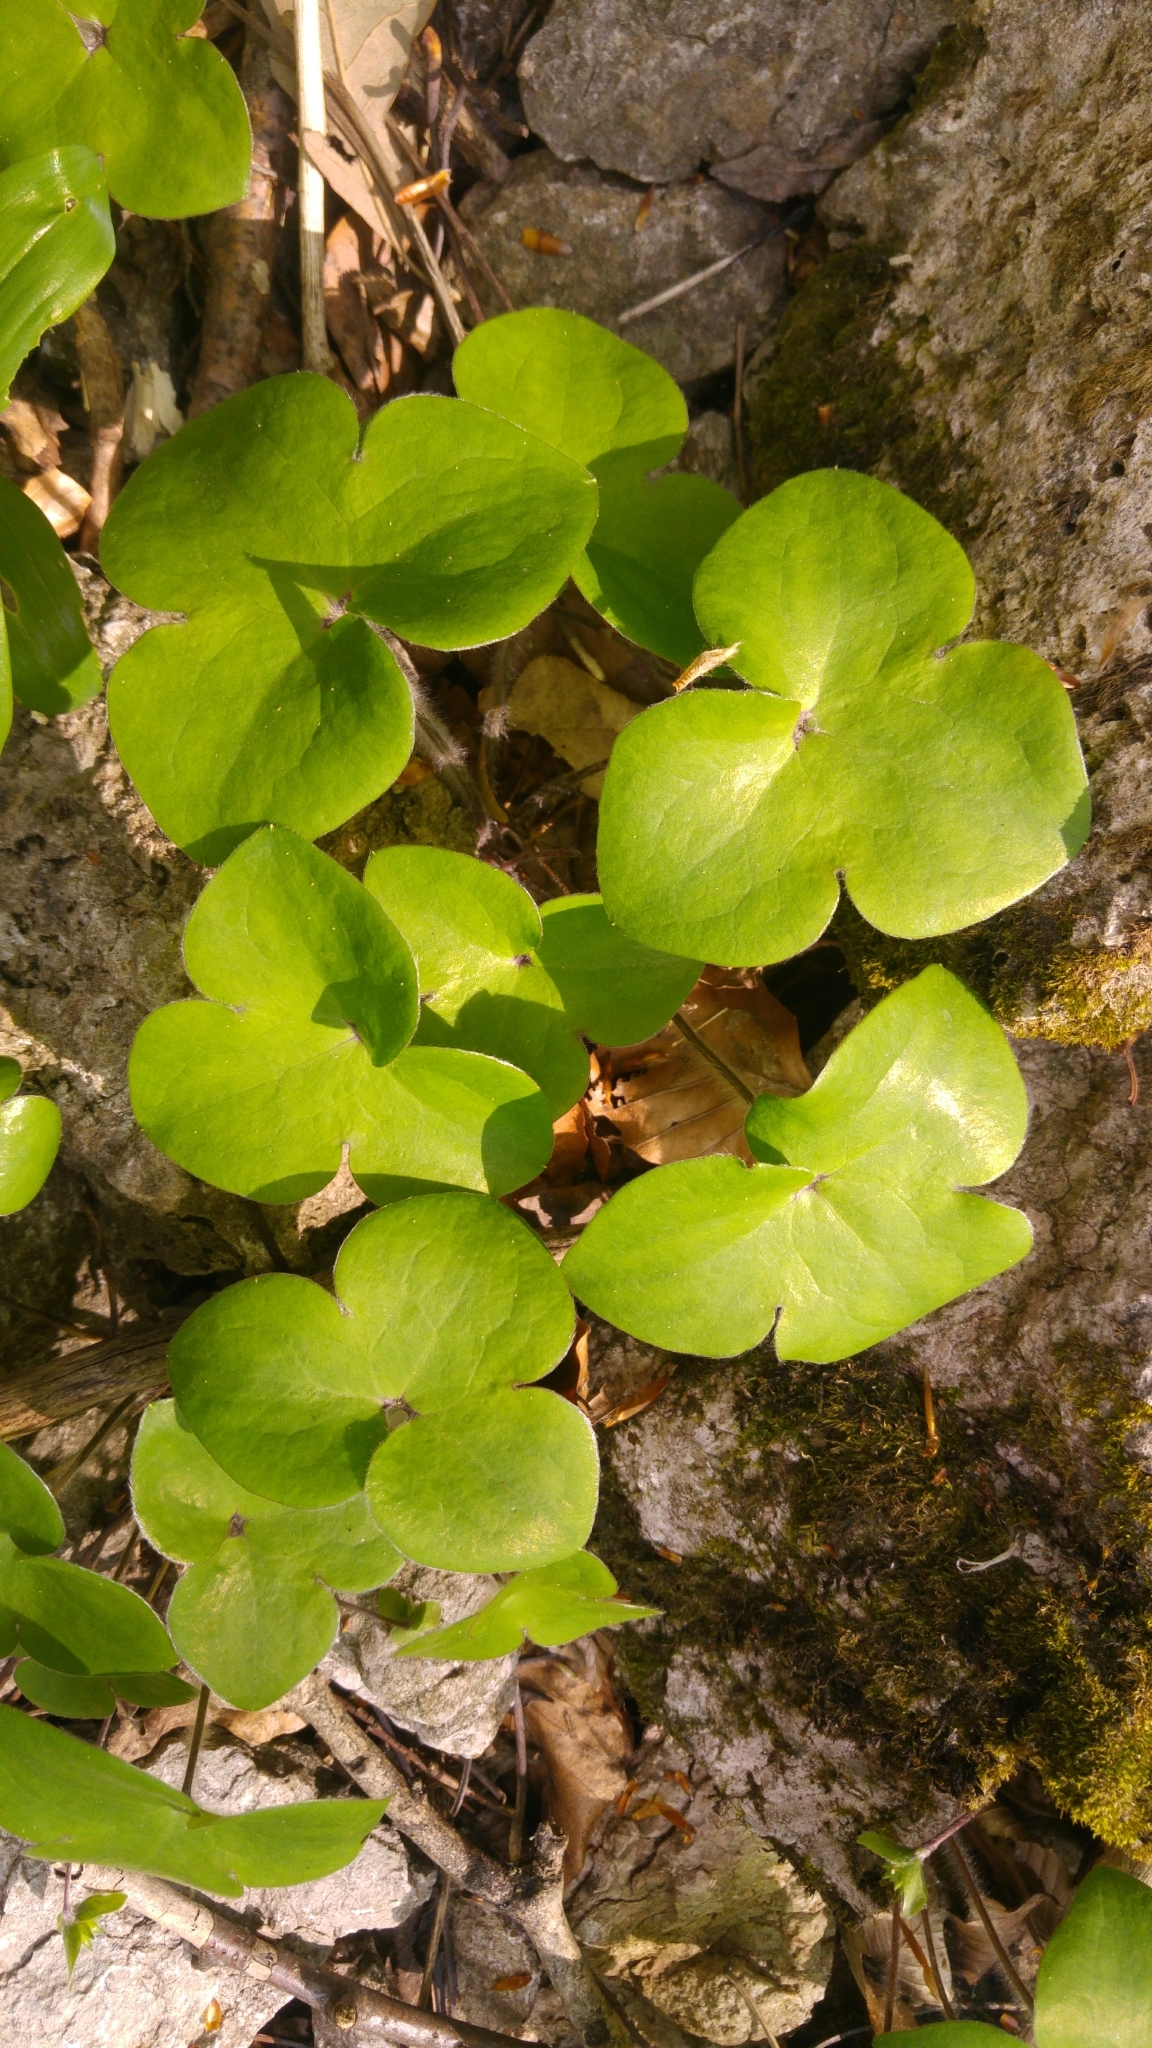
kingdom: Plantae
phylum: Tracheophyta
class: Magnoliopsida
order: Ranunculales
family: Ranunculaceae
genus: Hepatica
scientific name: Hepatica nobilis
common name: Liverleaf
